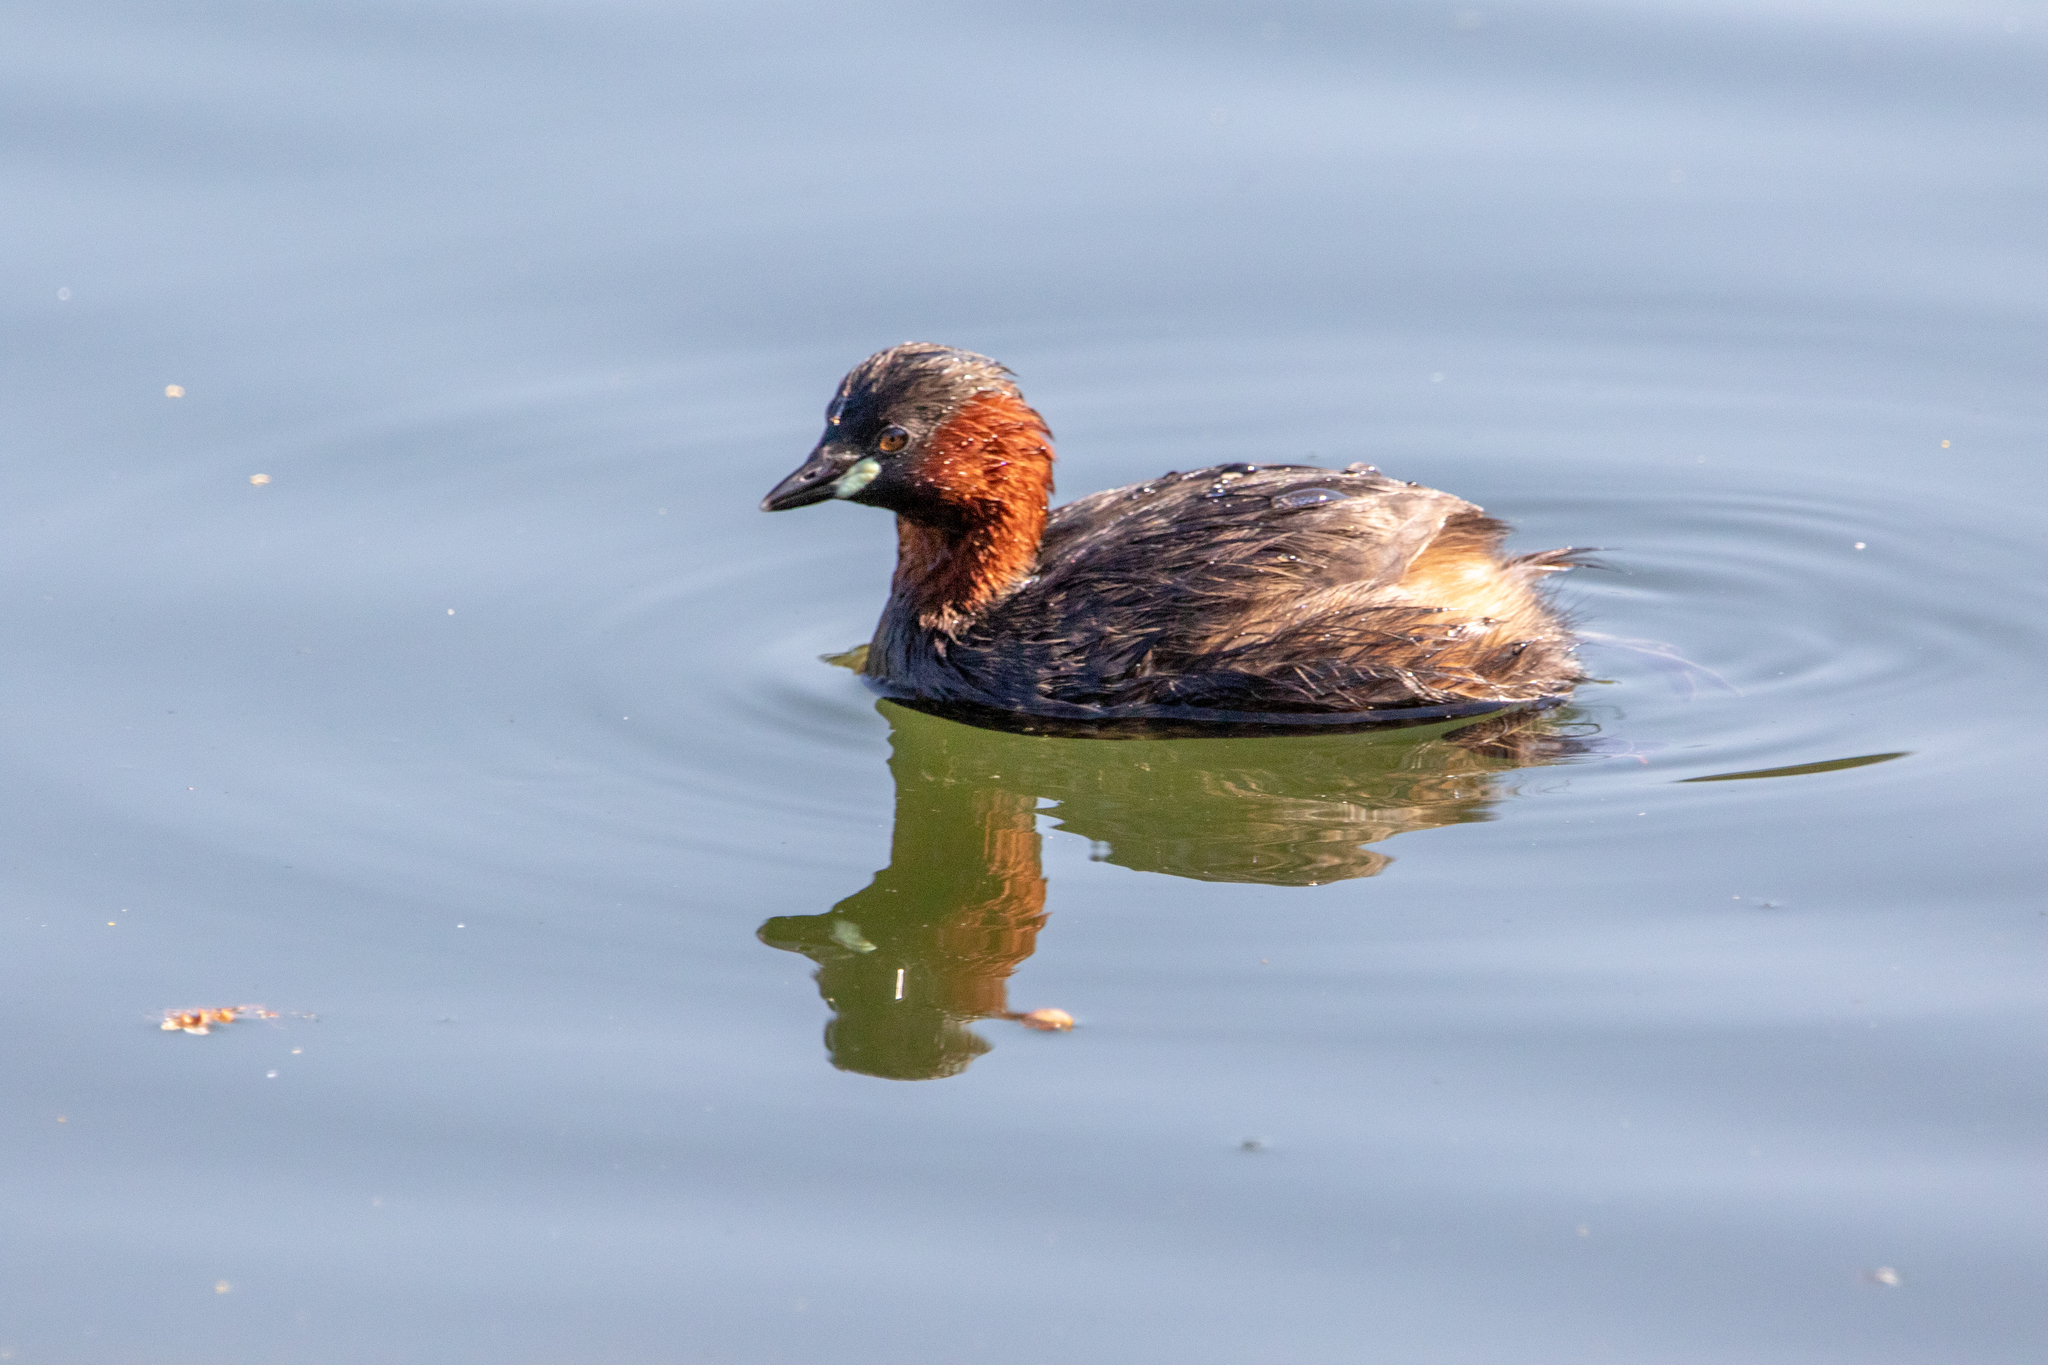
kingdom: Animalia
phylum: Chordata
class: Aves
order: Podicipediformes
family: Podicipedidae
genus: Tachybaptus
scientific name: Tachybaptus ruficollis
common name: Little grebe
